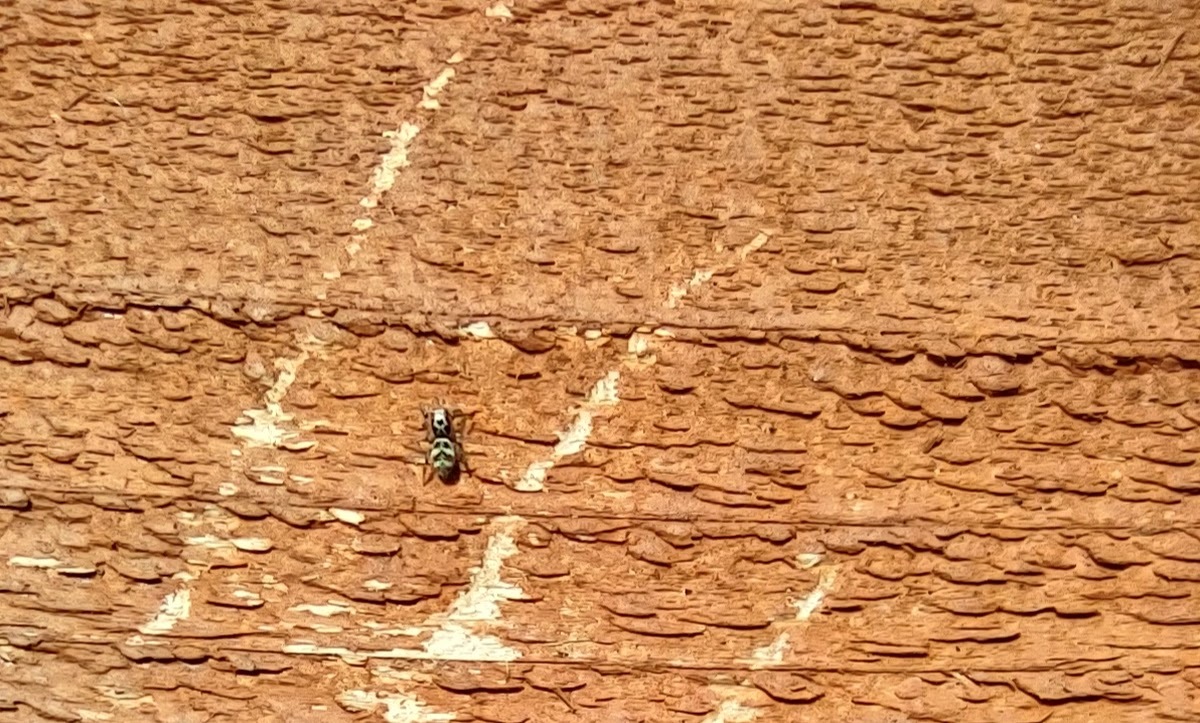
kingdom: Animalia
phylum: Arthropoda
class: Arachnida
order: Araneae
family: Salticidae
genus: Salticus
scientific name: Salticus scenicus
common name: Zebra jumper
